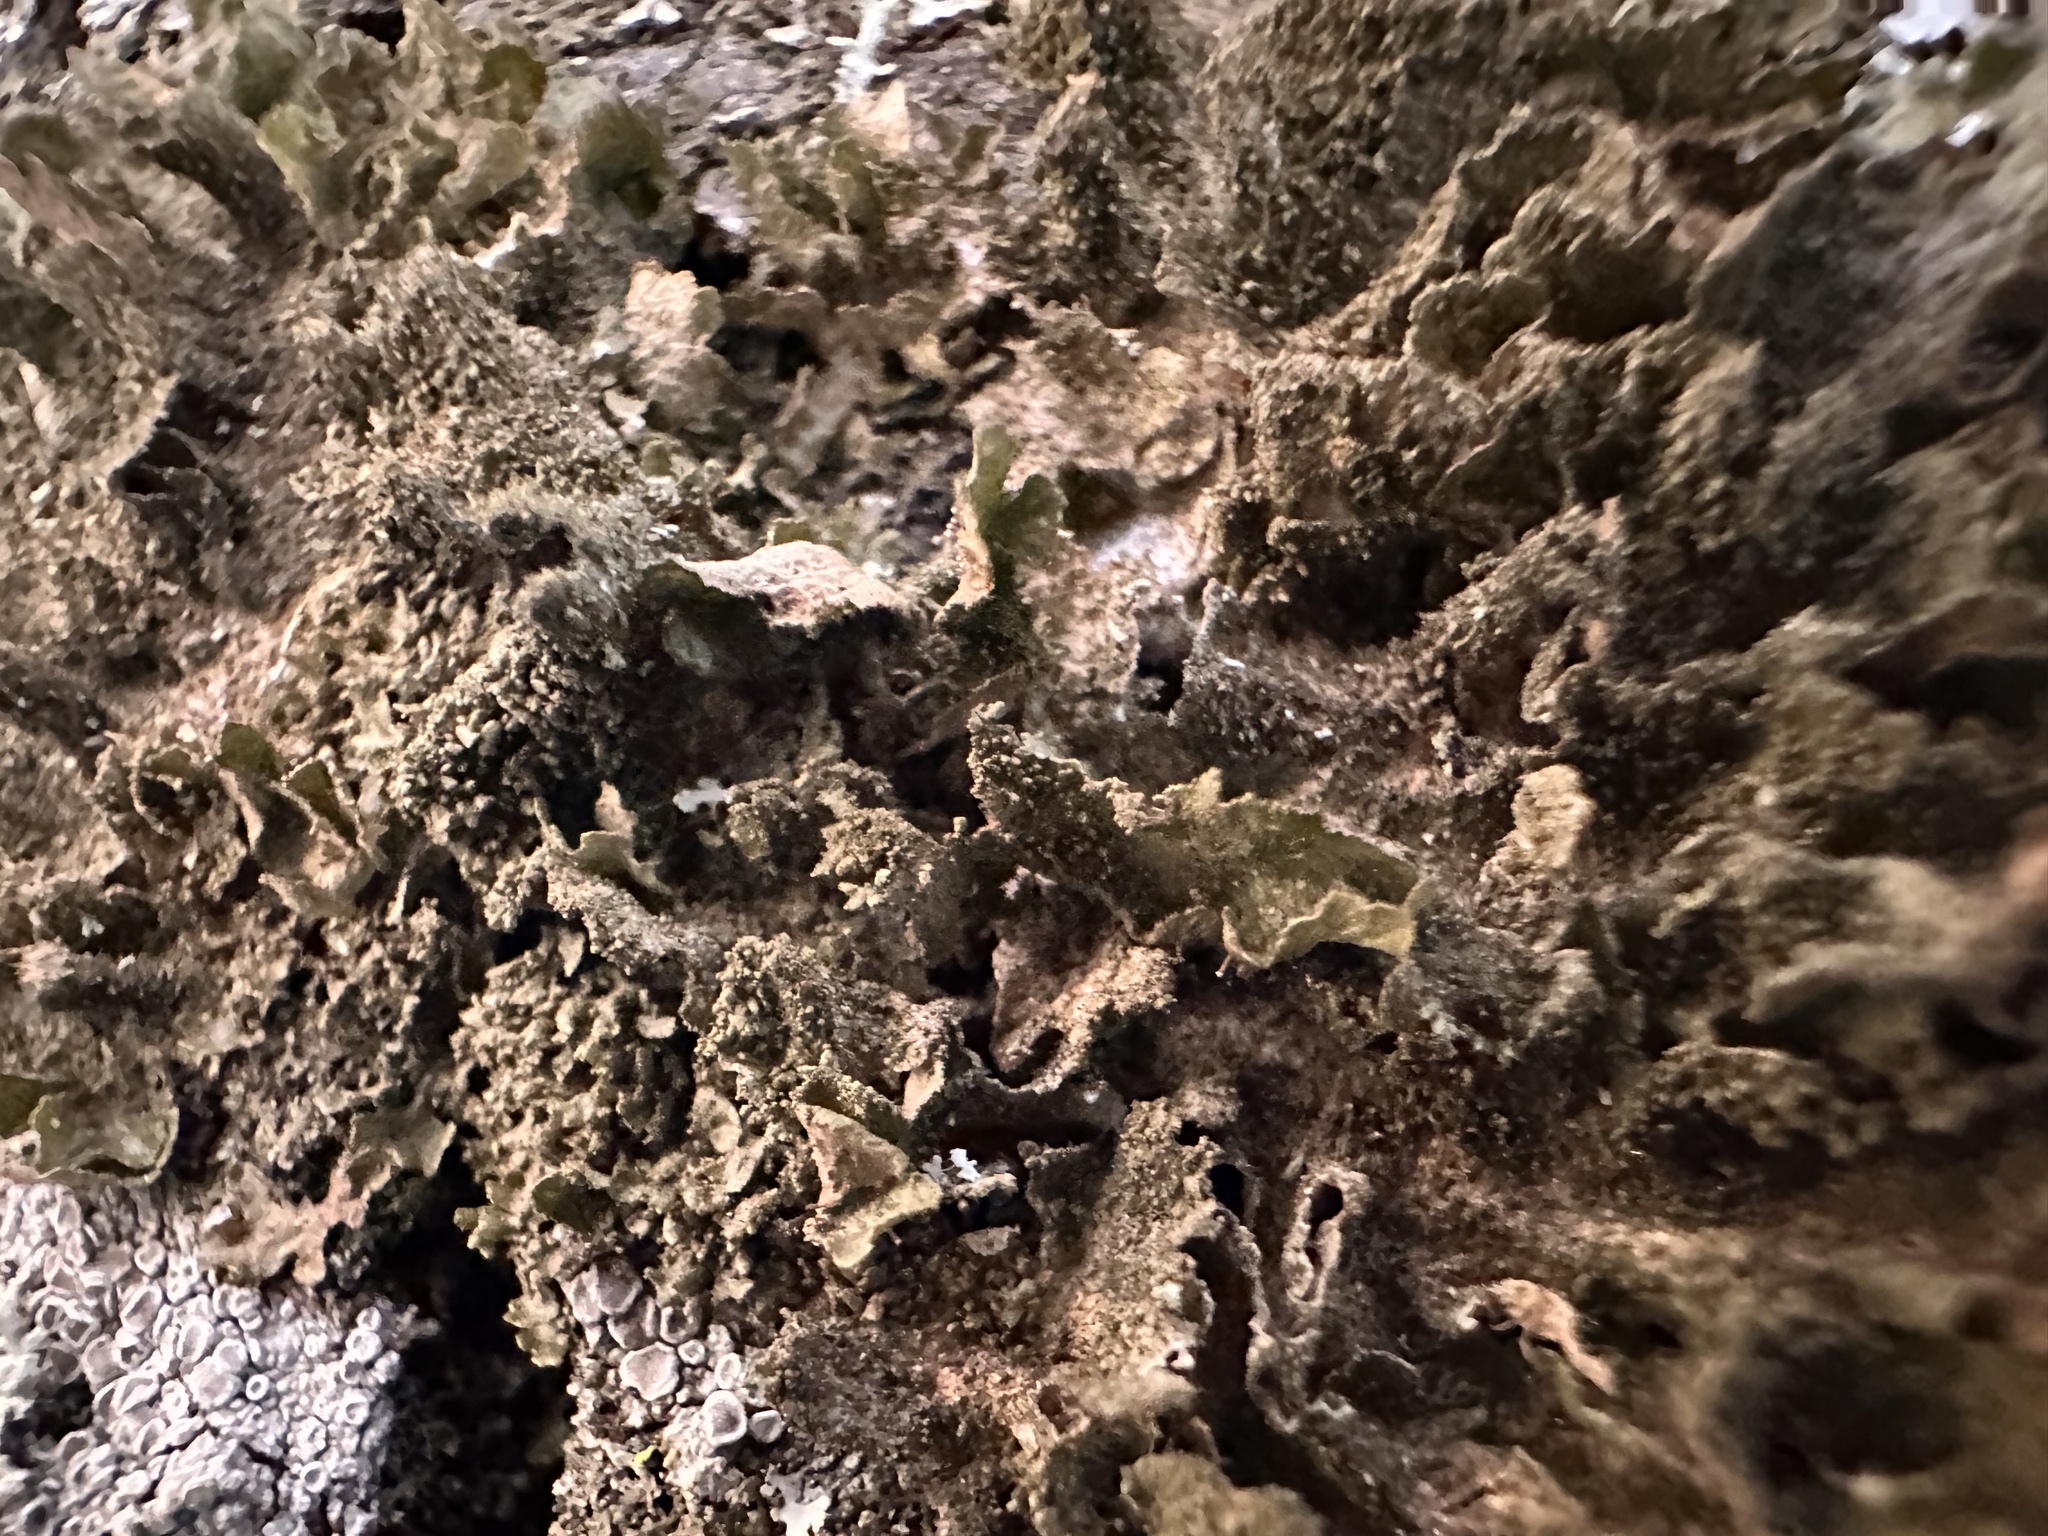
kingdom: Fungi
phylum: Ascomycota
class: Lecanoromycetes
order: Lecanorales
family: Parmeliaceae
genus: Melanohalea
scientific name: Melanohalea exasperatula
